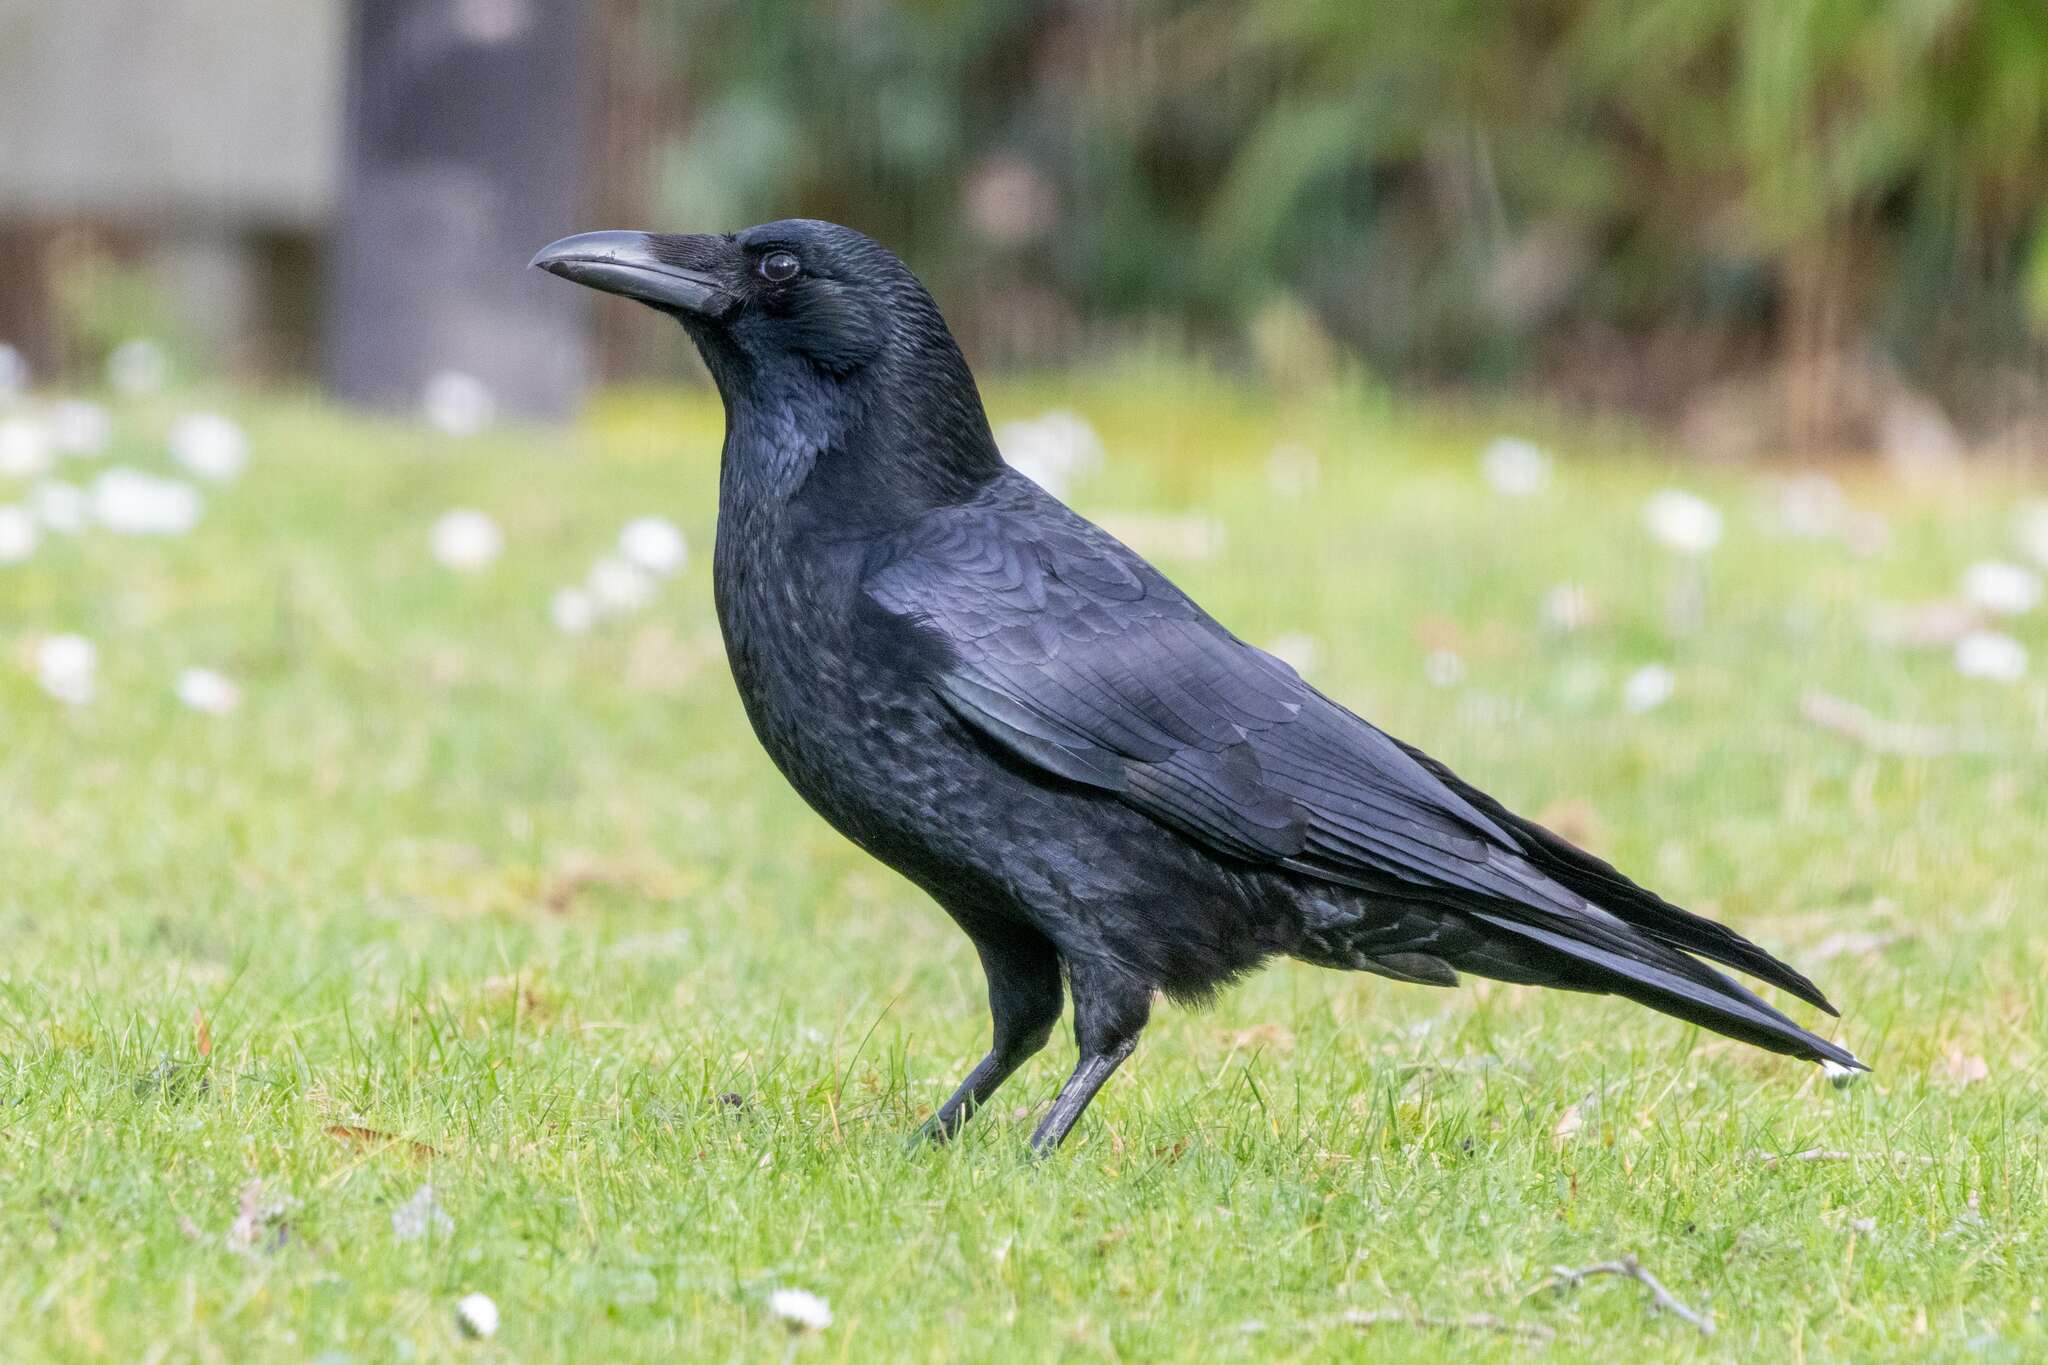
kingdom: Animalia
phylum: Chordata
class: Aves
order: Passeriformes
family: Corvidae
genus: Corvus
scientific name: Corvus corone
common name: Carrion crow
